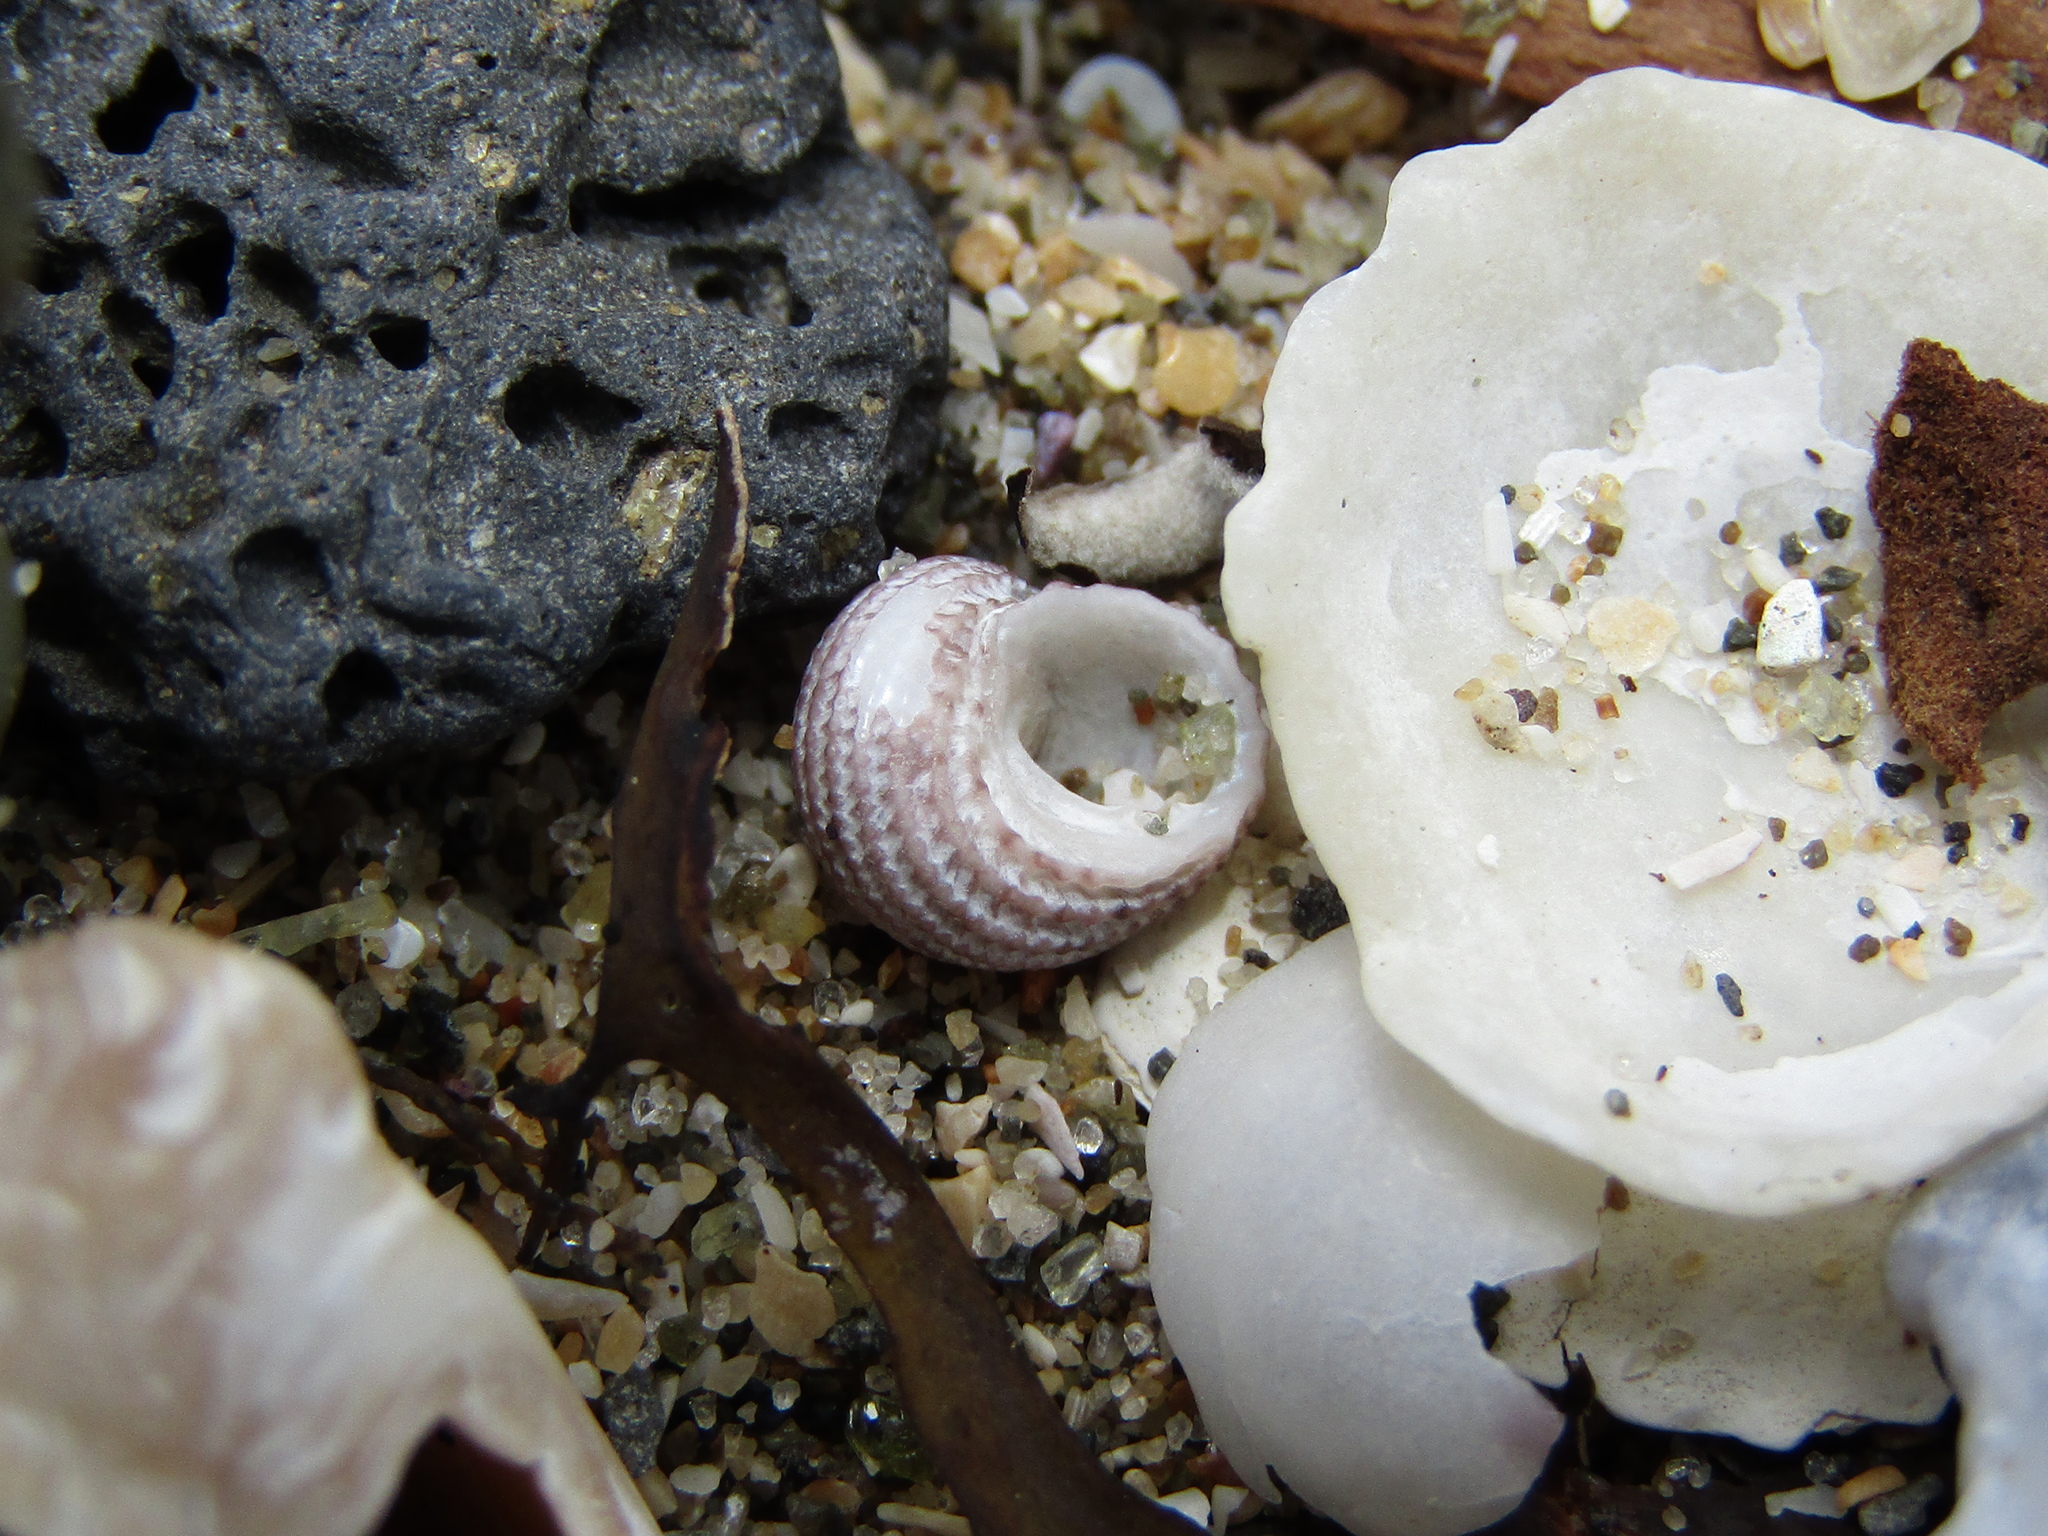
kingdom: Animalia
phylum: Mollusca
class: Gastropoda
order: Seguenziida
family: Chilodontaidae
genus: Herpetopoma
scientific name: Herpetopoma bellum
